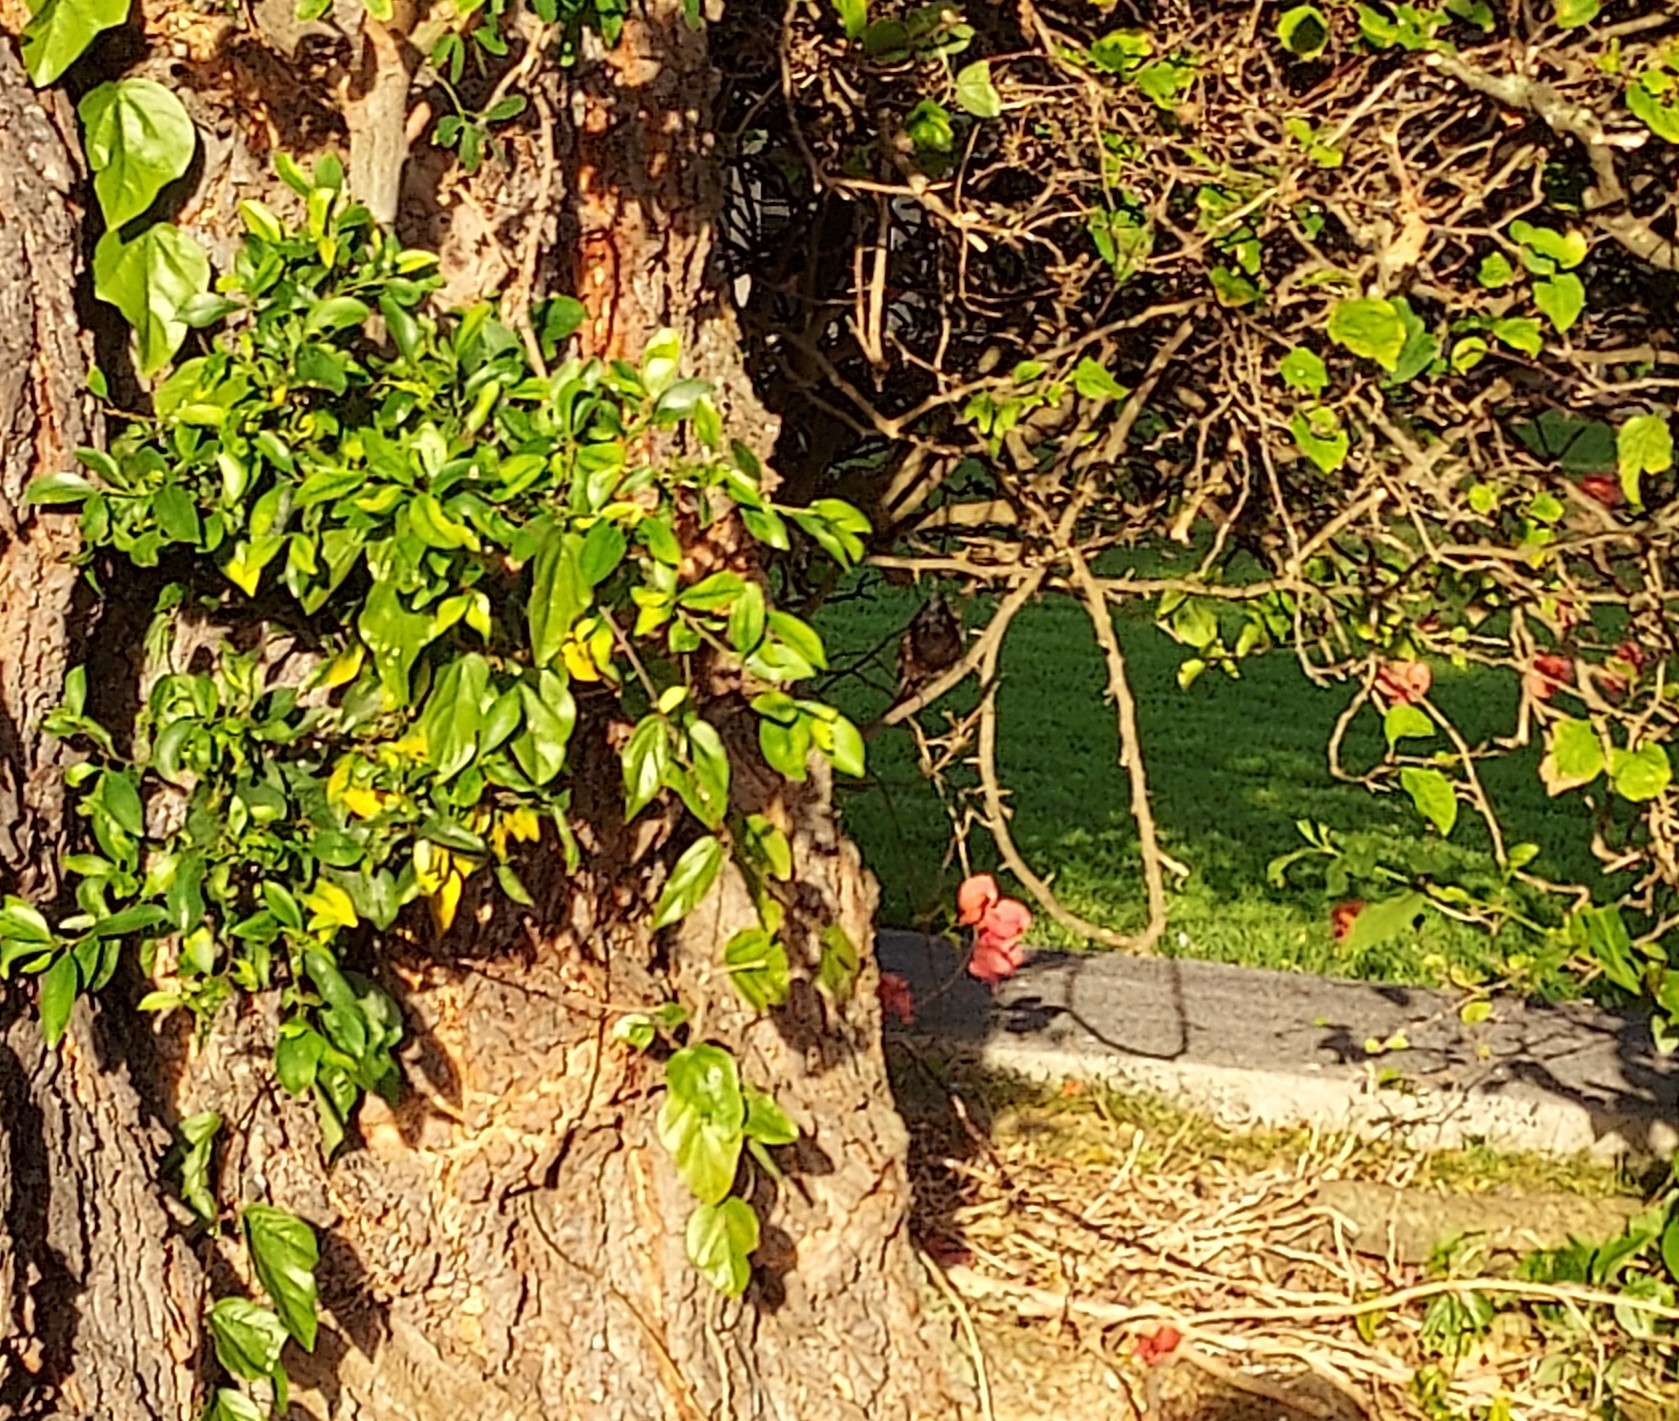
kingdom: Animalia
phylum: Chordata
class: Aves
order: Passeriformes
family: Pycnonotidae
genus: Pycnonotus
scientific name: Pycnonotus cafer
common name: Red-vented bulbul
